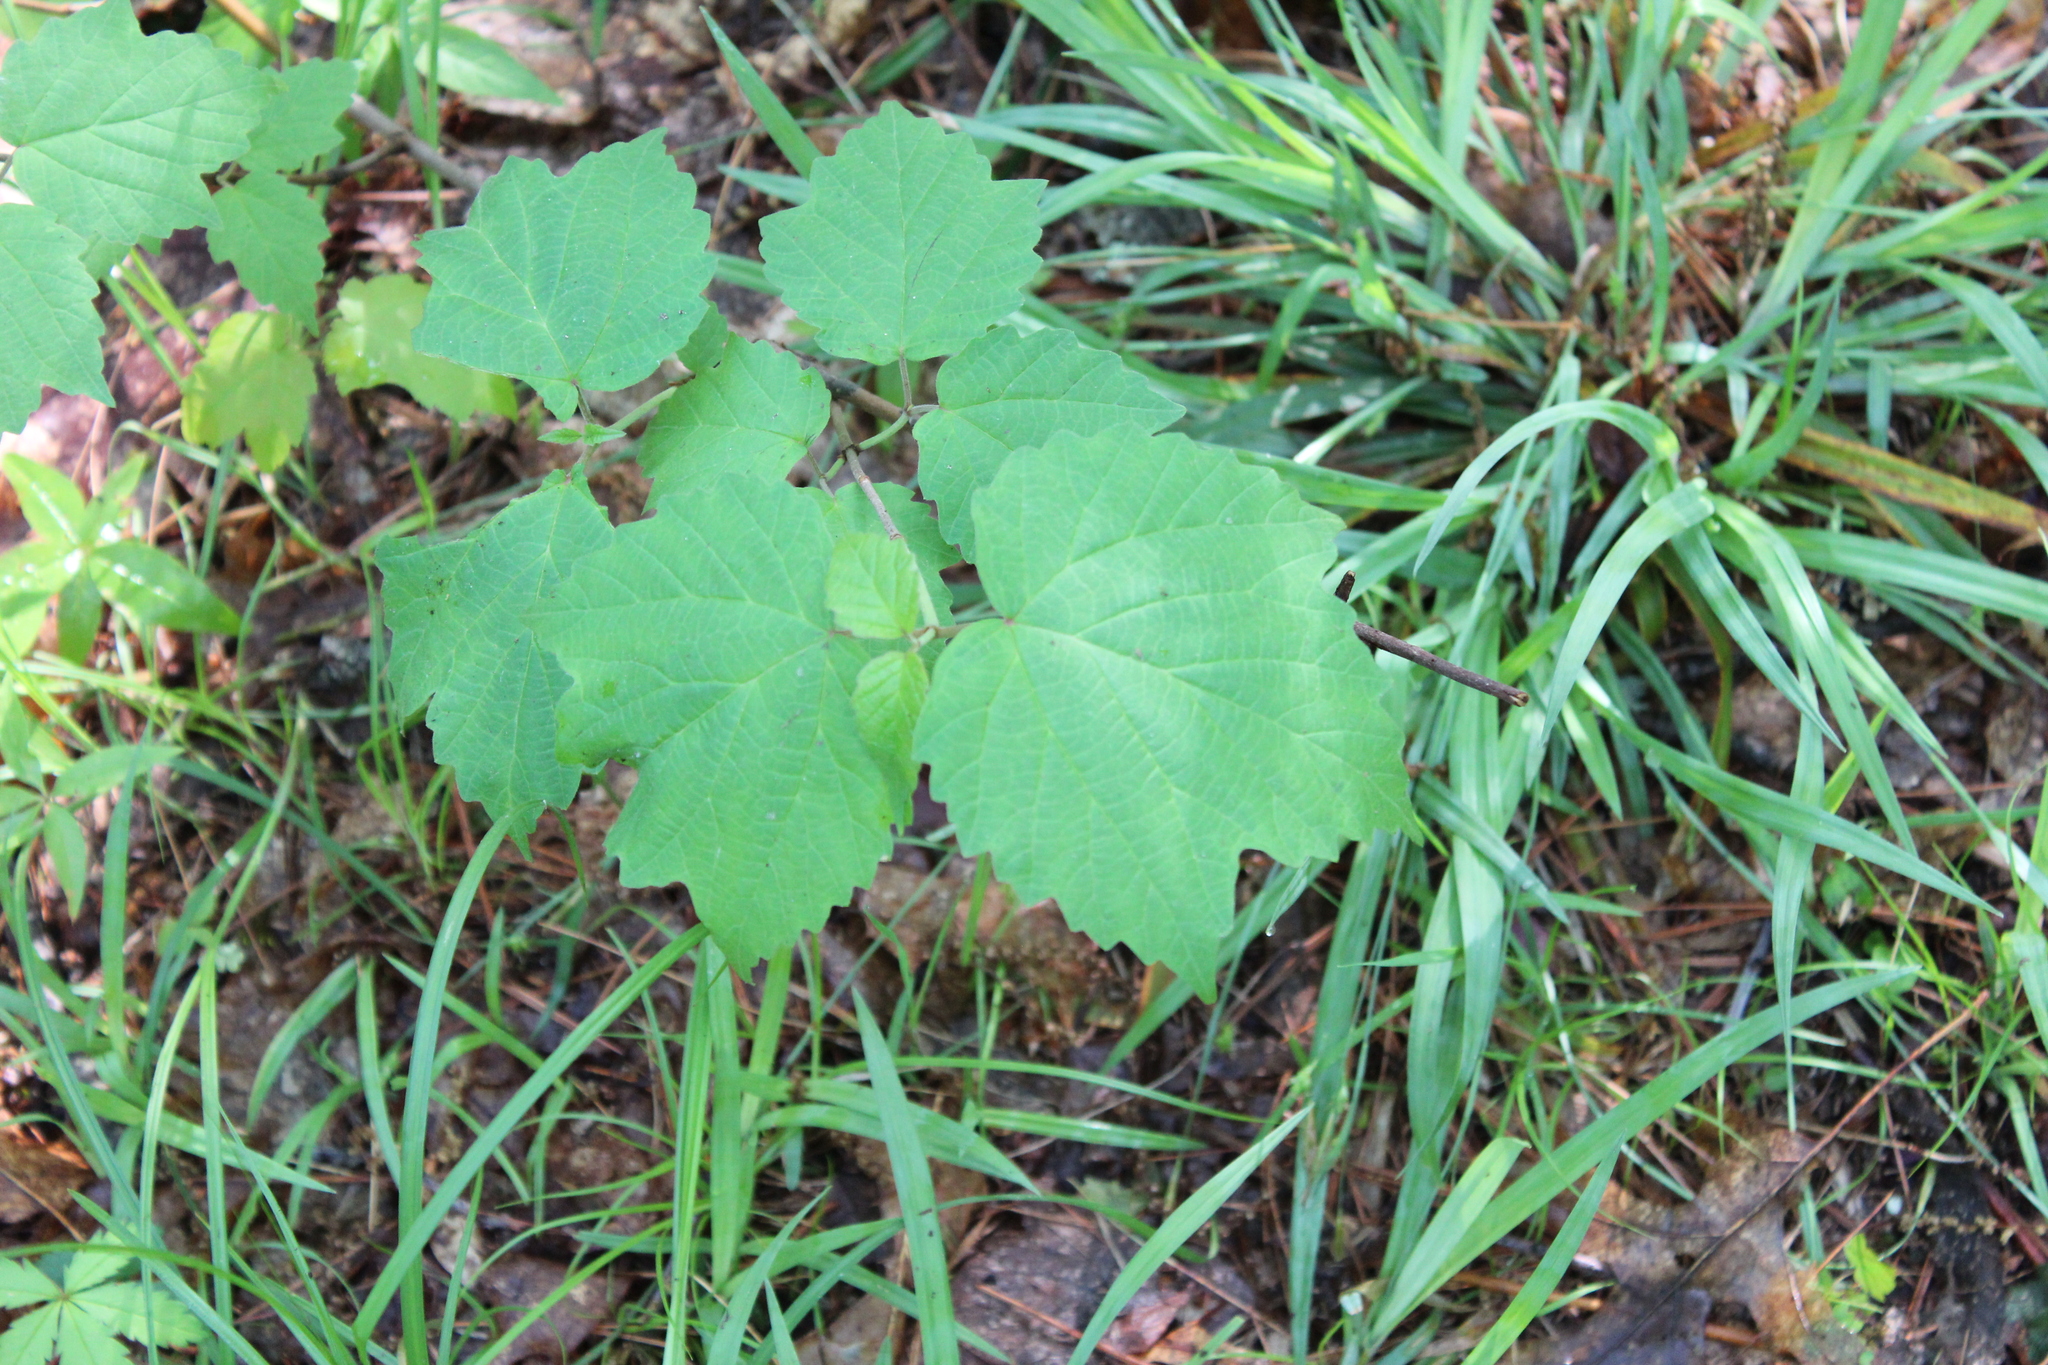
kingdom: Plantae
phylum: Tracheophyta
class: Magnoliopsida
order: Dipsacales
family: Viburnaceae
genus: Viburnum
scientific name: Viburnum acerifolium
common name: Dockmackie
